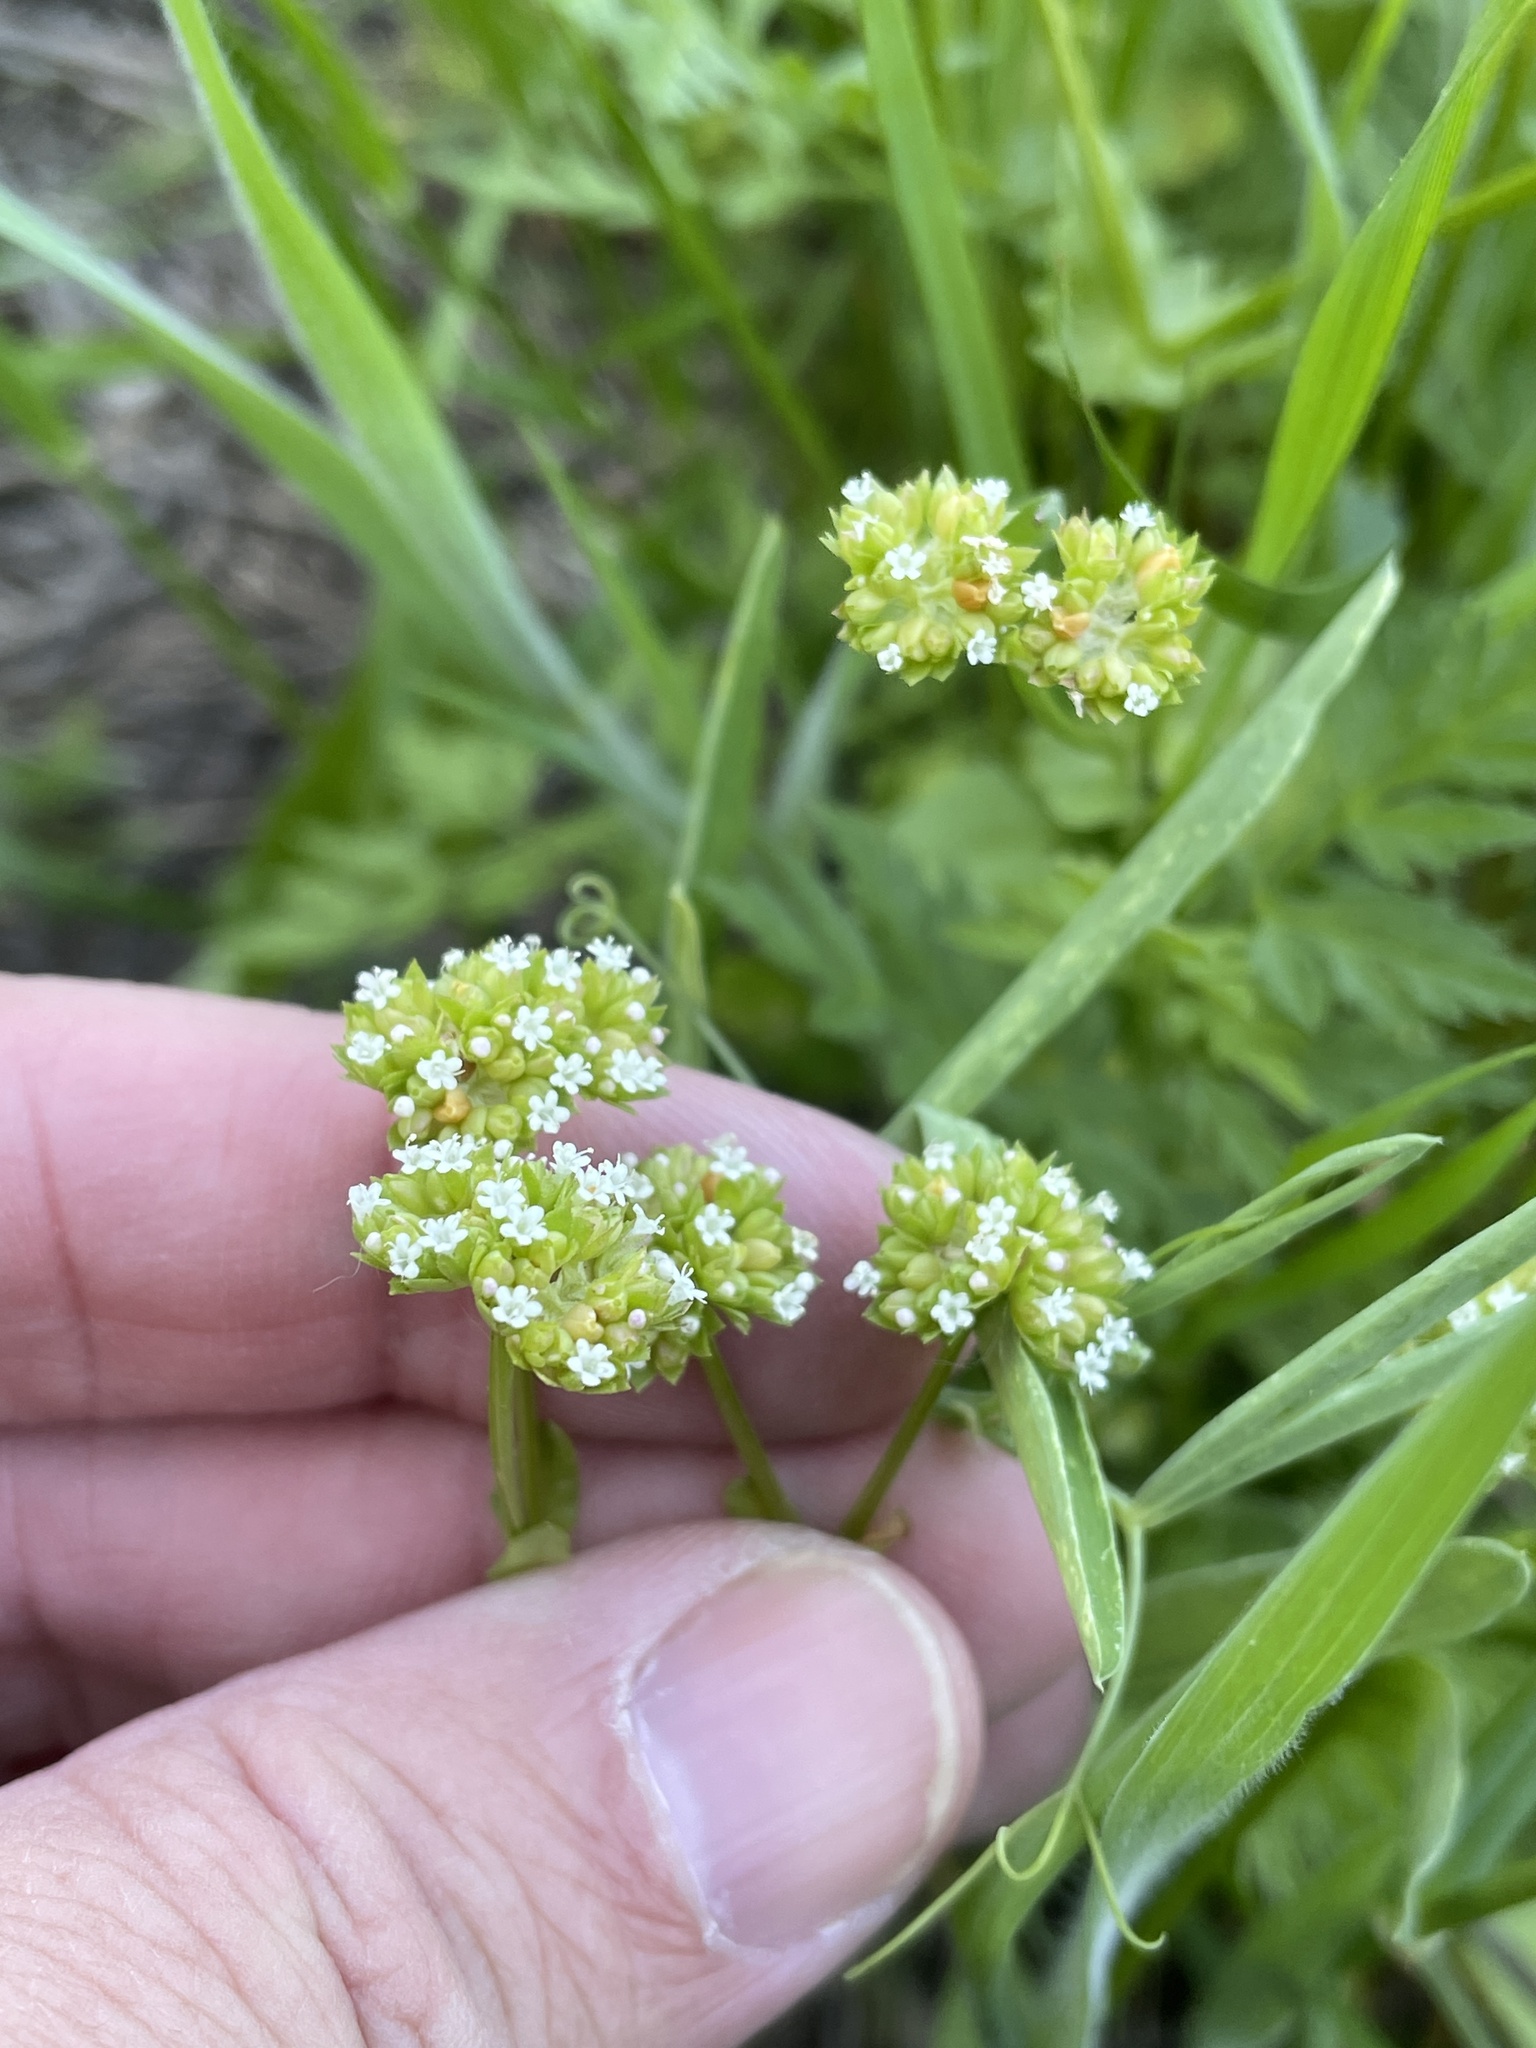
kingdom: Plantae
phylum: Tracheophyta
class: Magnoliopsida
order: Dipsacales
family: Caprifoliaceae
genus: Valerianella
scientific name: Valerianella radiata
